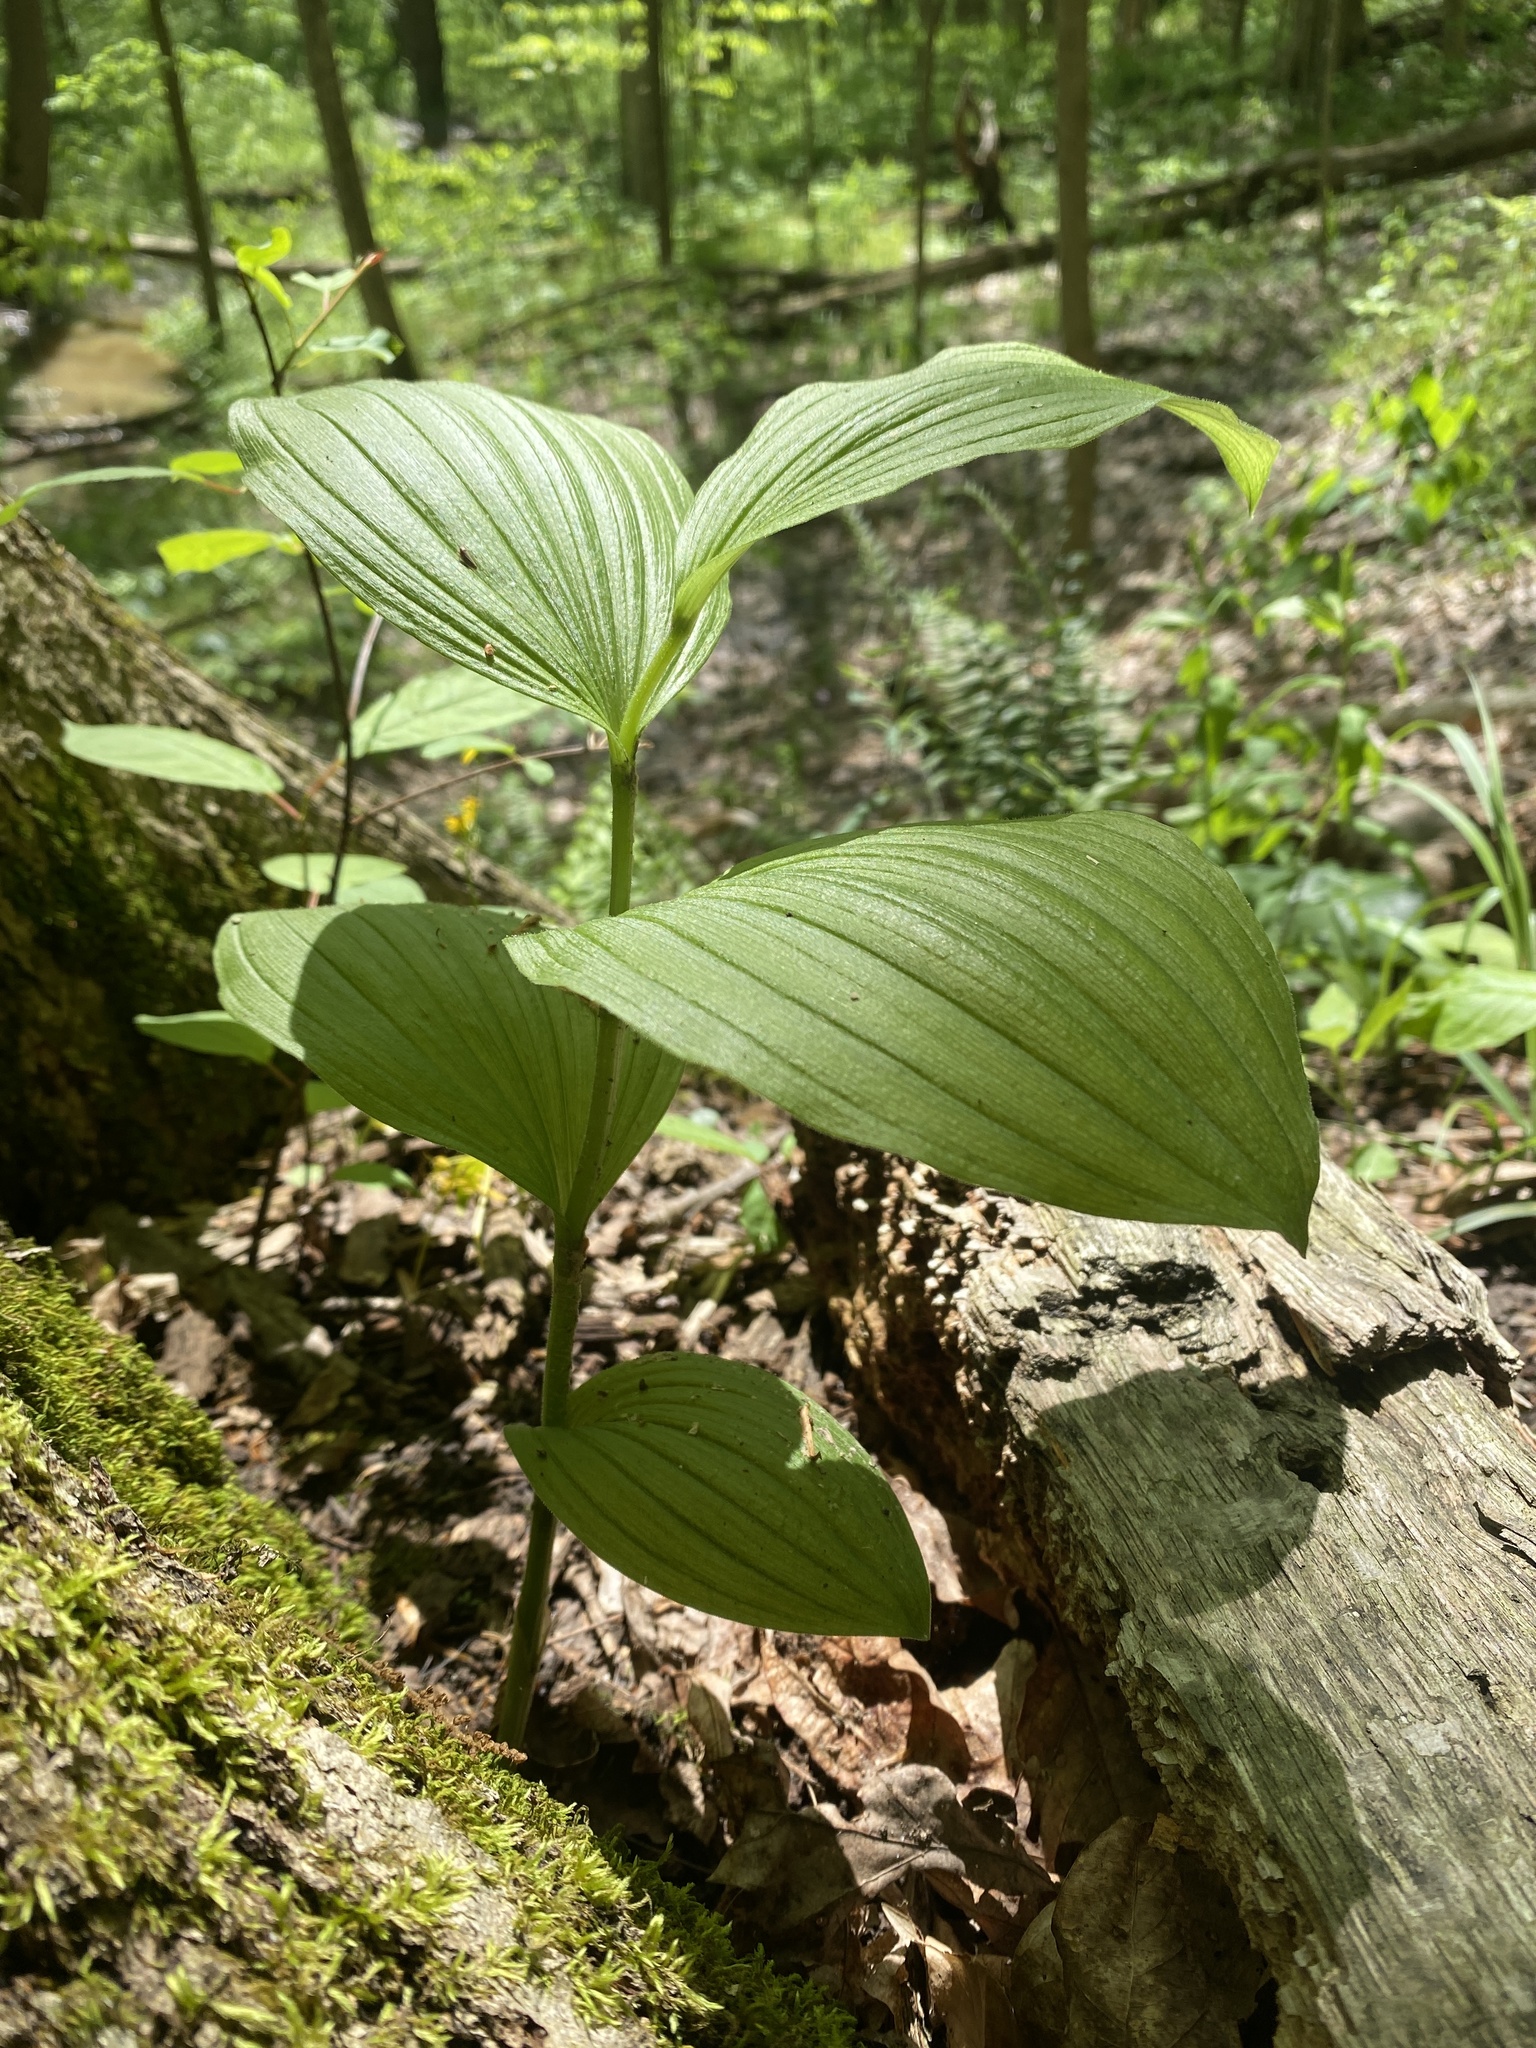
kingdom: Plantae
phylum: Tracheophyta
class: Liliopsida
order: Asparagales
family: Orchidaceae
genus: Cypripedium
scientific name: Cypripedium parviflorum
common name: American yellow lady's-slipper
